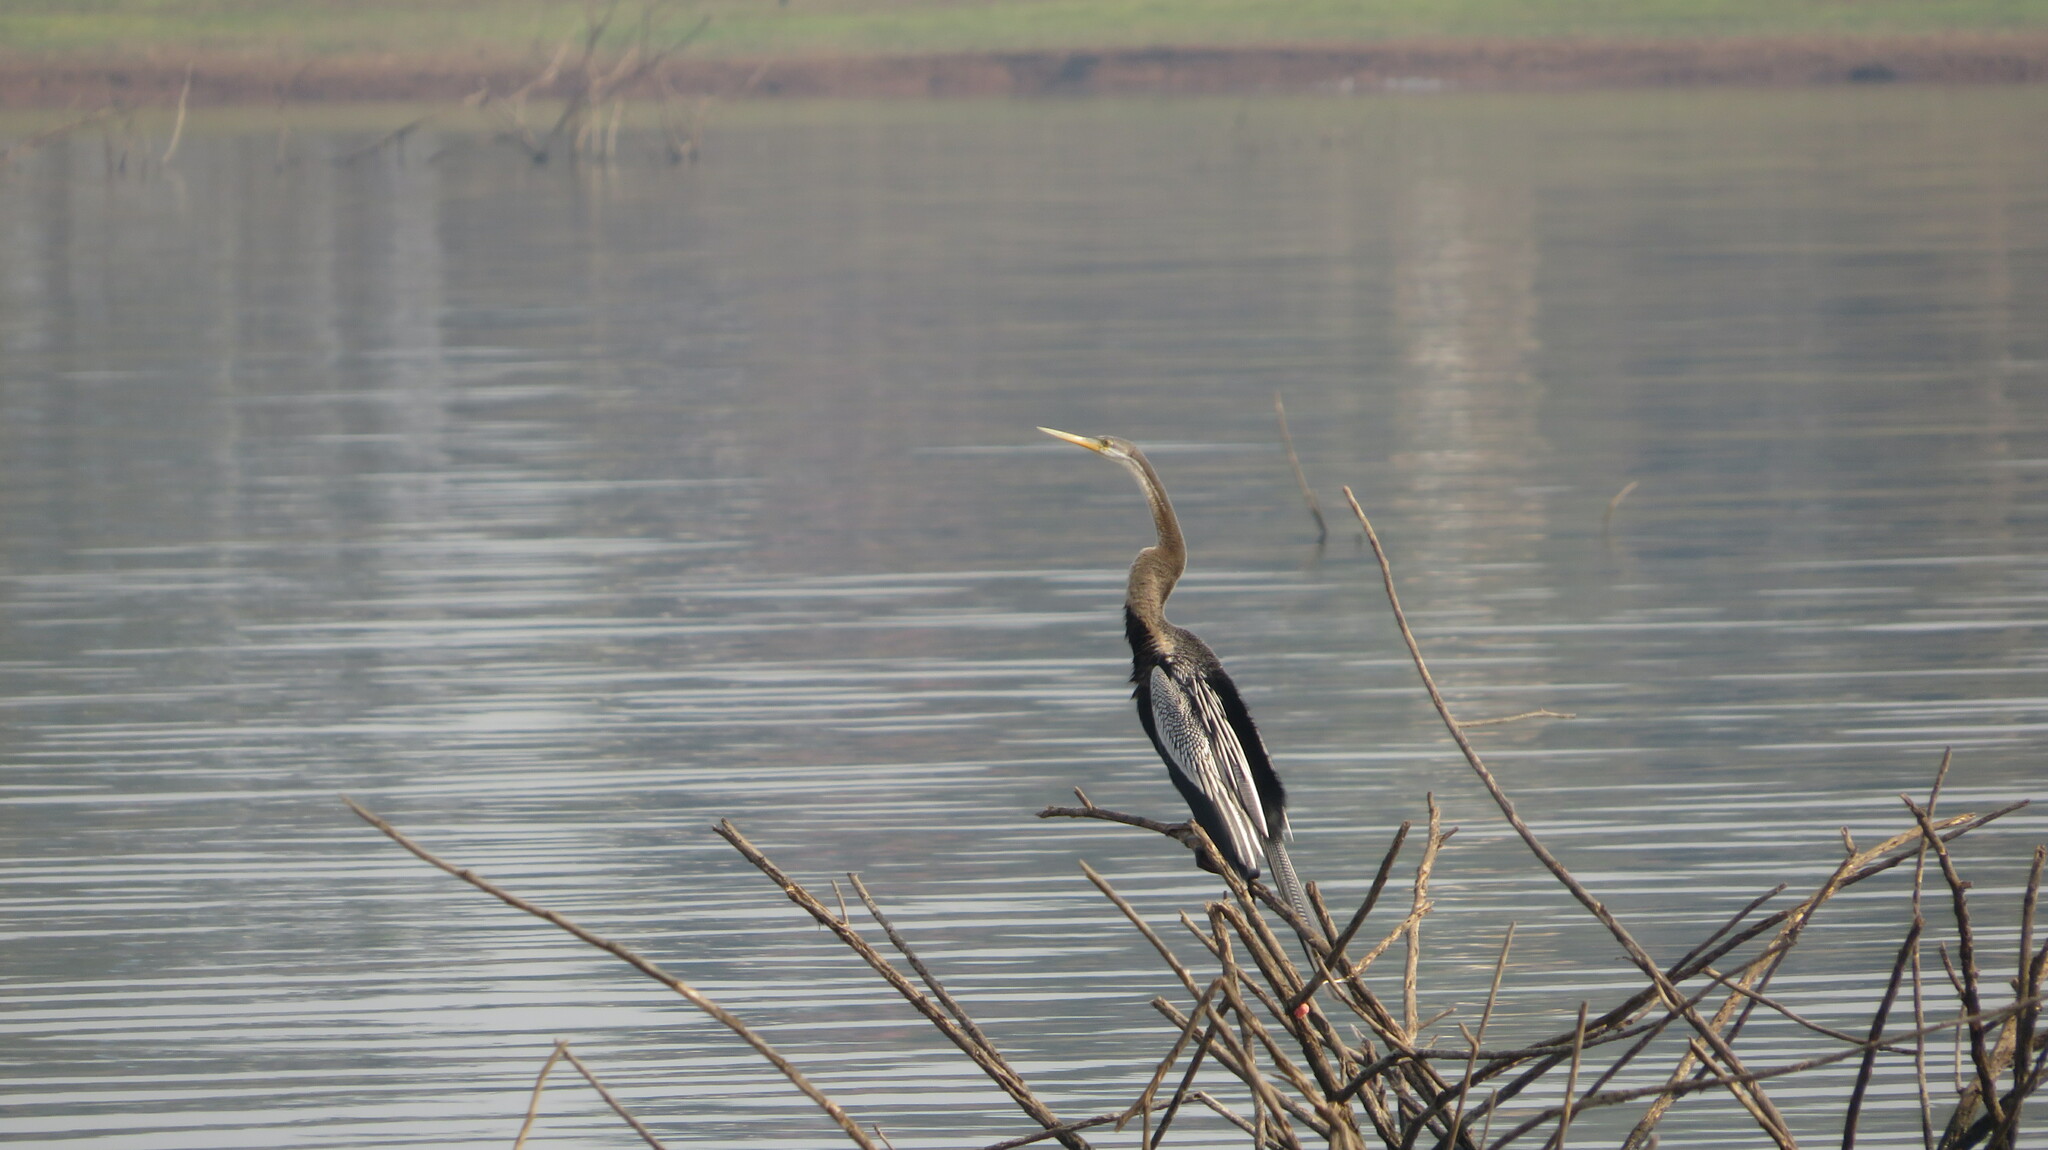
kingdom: Animalia
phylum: Chordata
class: Aves
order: Suliformes
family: Anhingidae
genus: Anhinga
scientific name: Anhinga melanogaster
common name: Oriental darter
